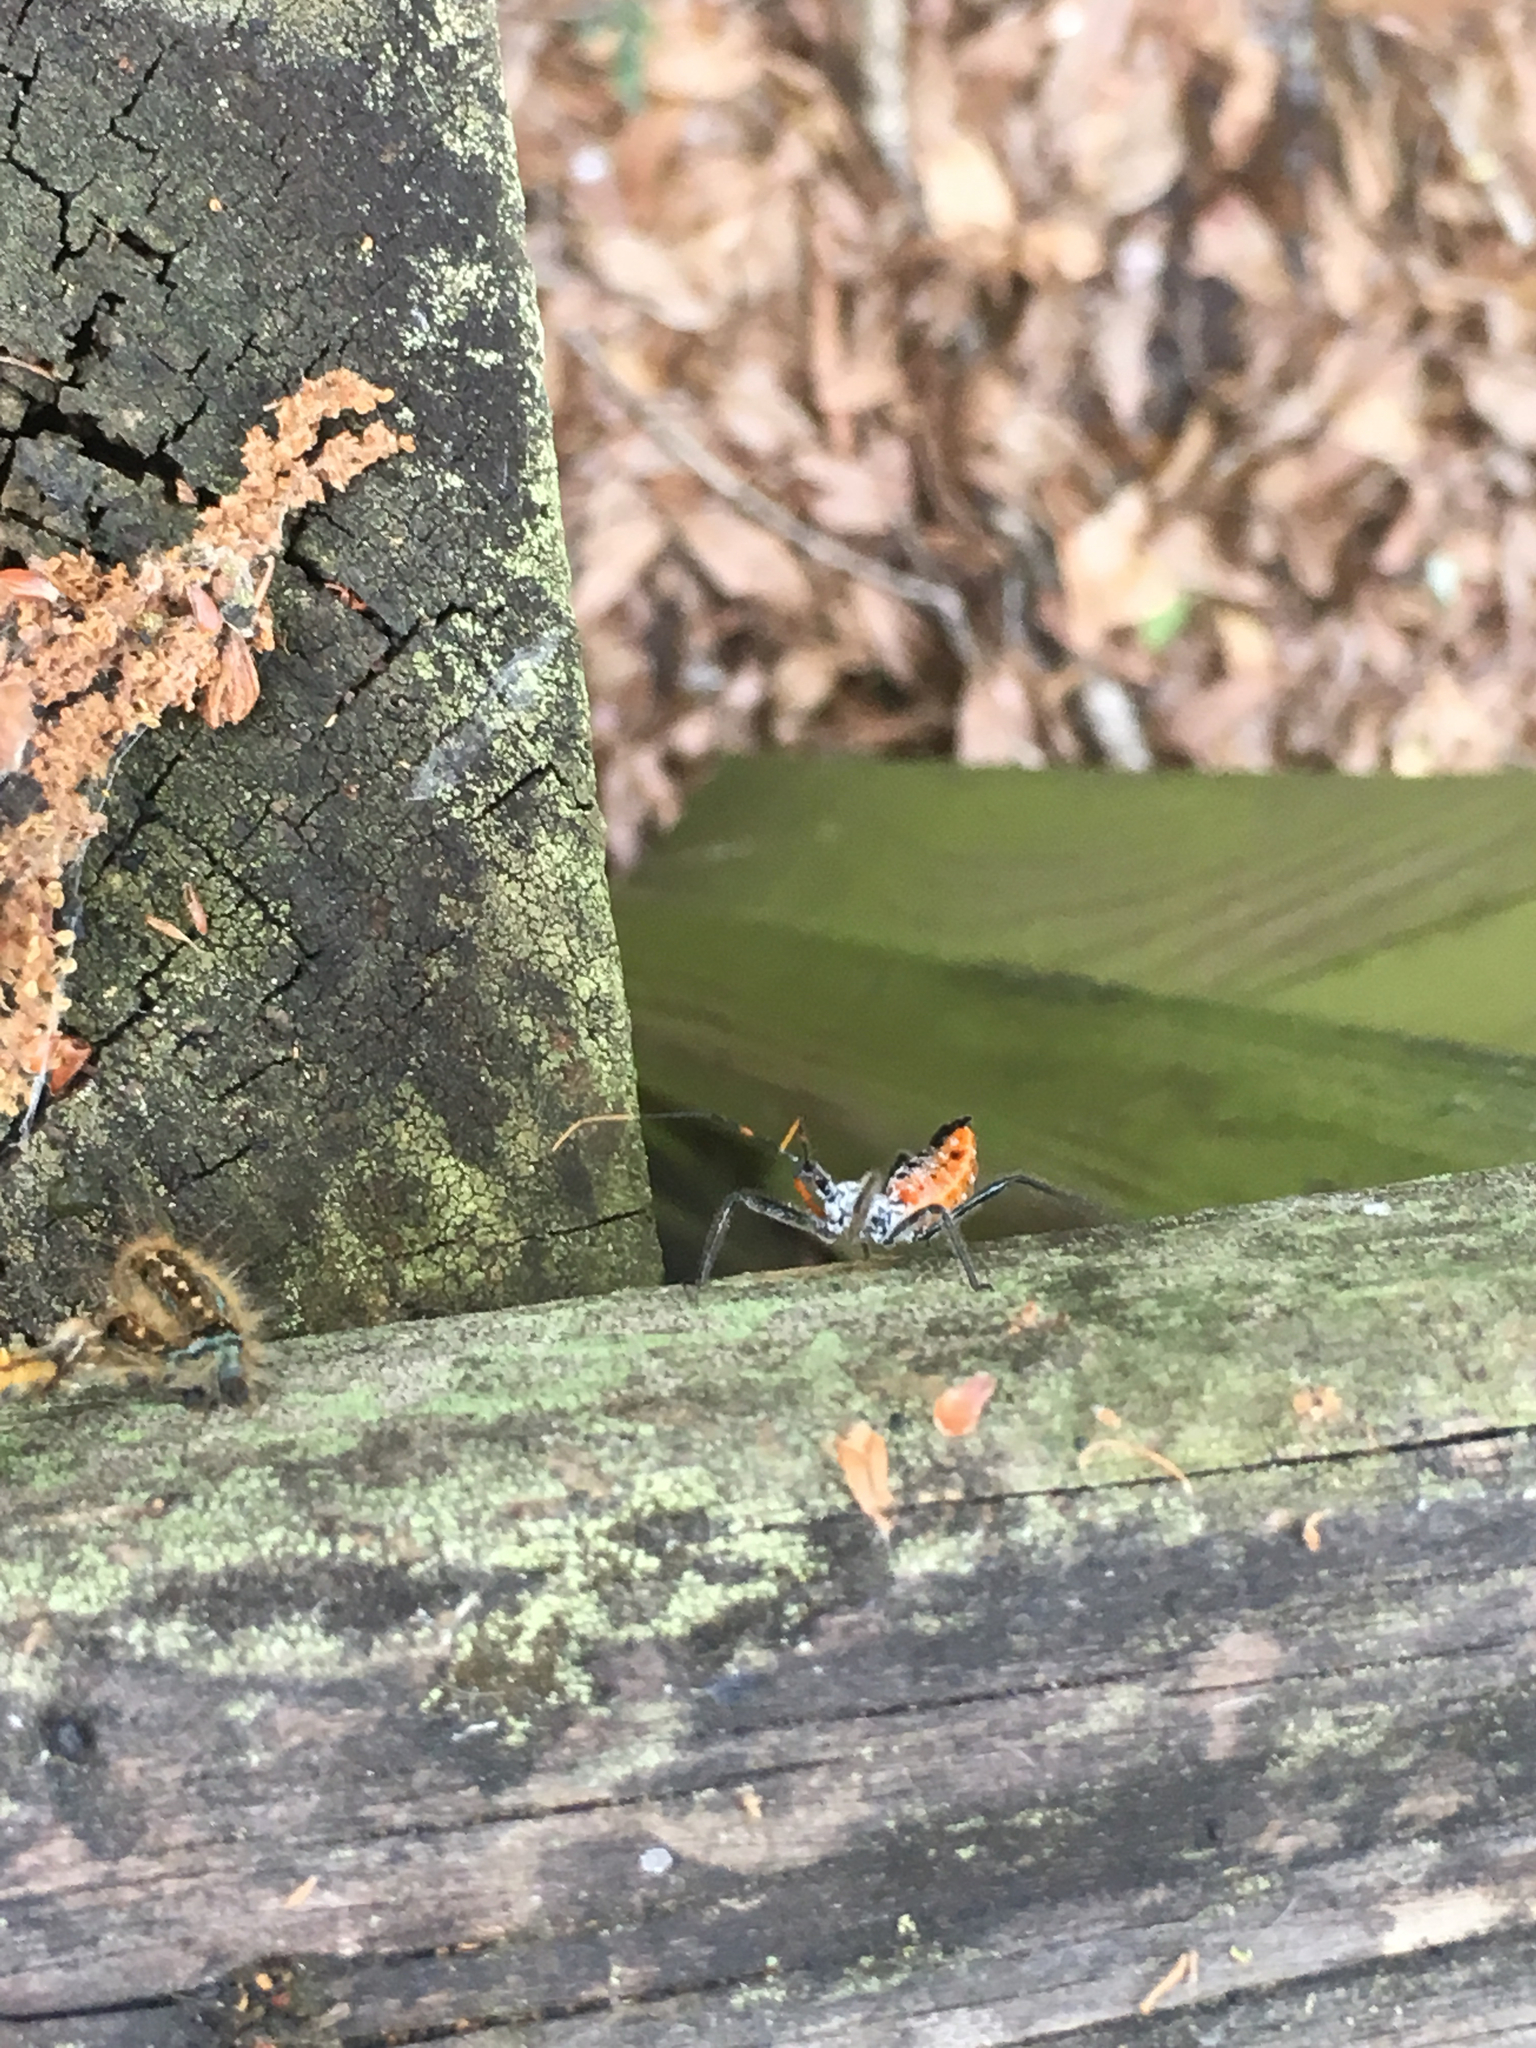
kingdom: Animalia
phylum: Arthropoda
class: Insecta
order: Hemiptera
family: Reduviidae
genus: Arilus
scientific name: Arilus cristatus
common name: North american wheel bug
